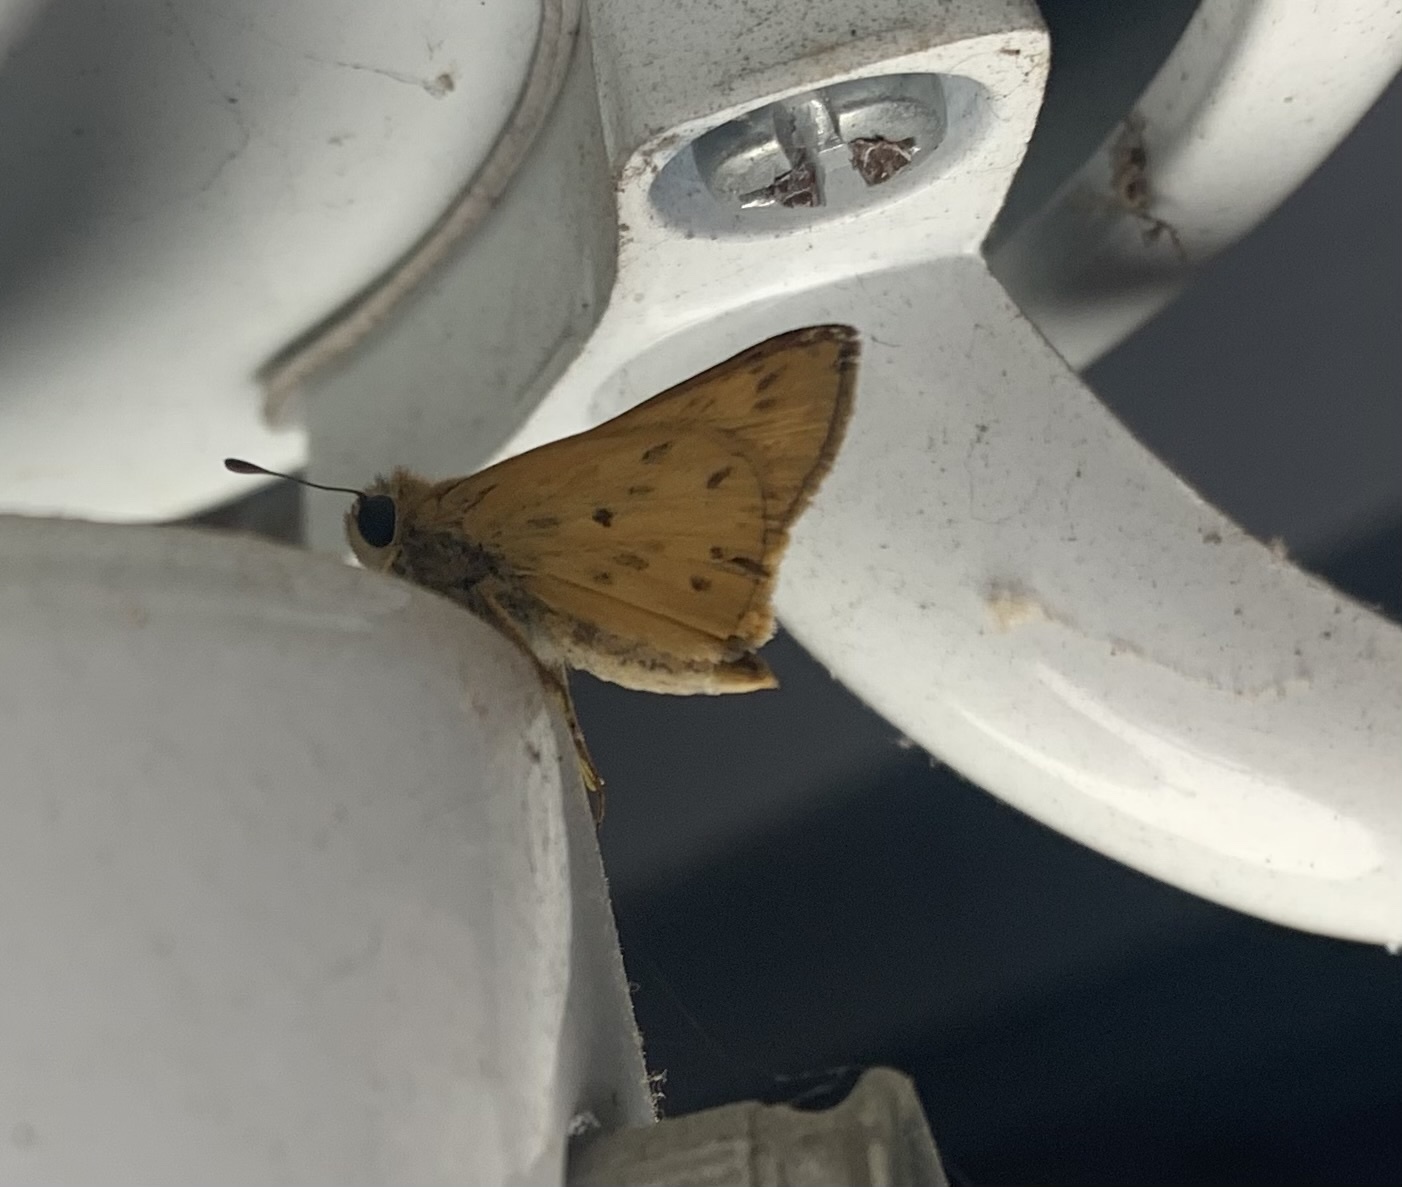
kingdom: Animalia
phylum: Arthropoda
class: Insecta
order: Lepidoptera
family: Hesperiidae
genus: Hylephila
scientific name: Hylephila phyleus
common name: Fiery skipper
